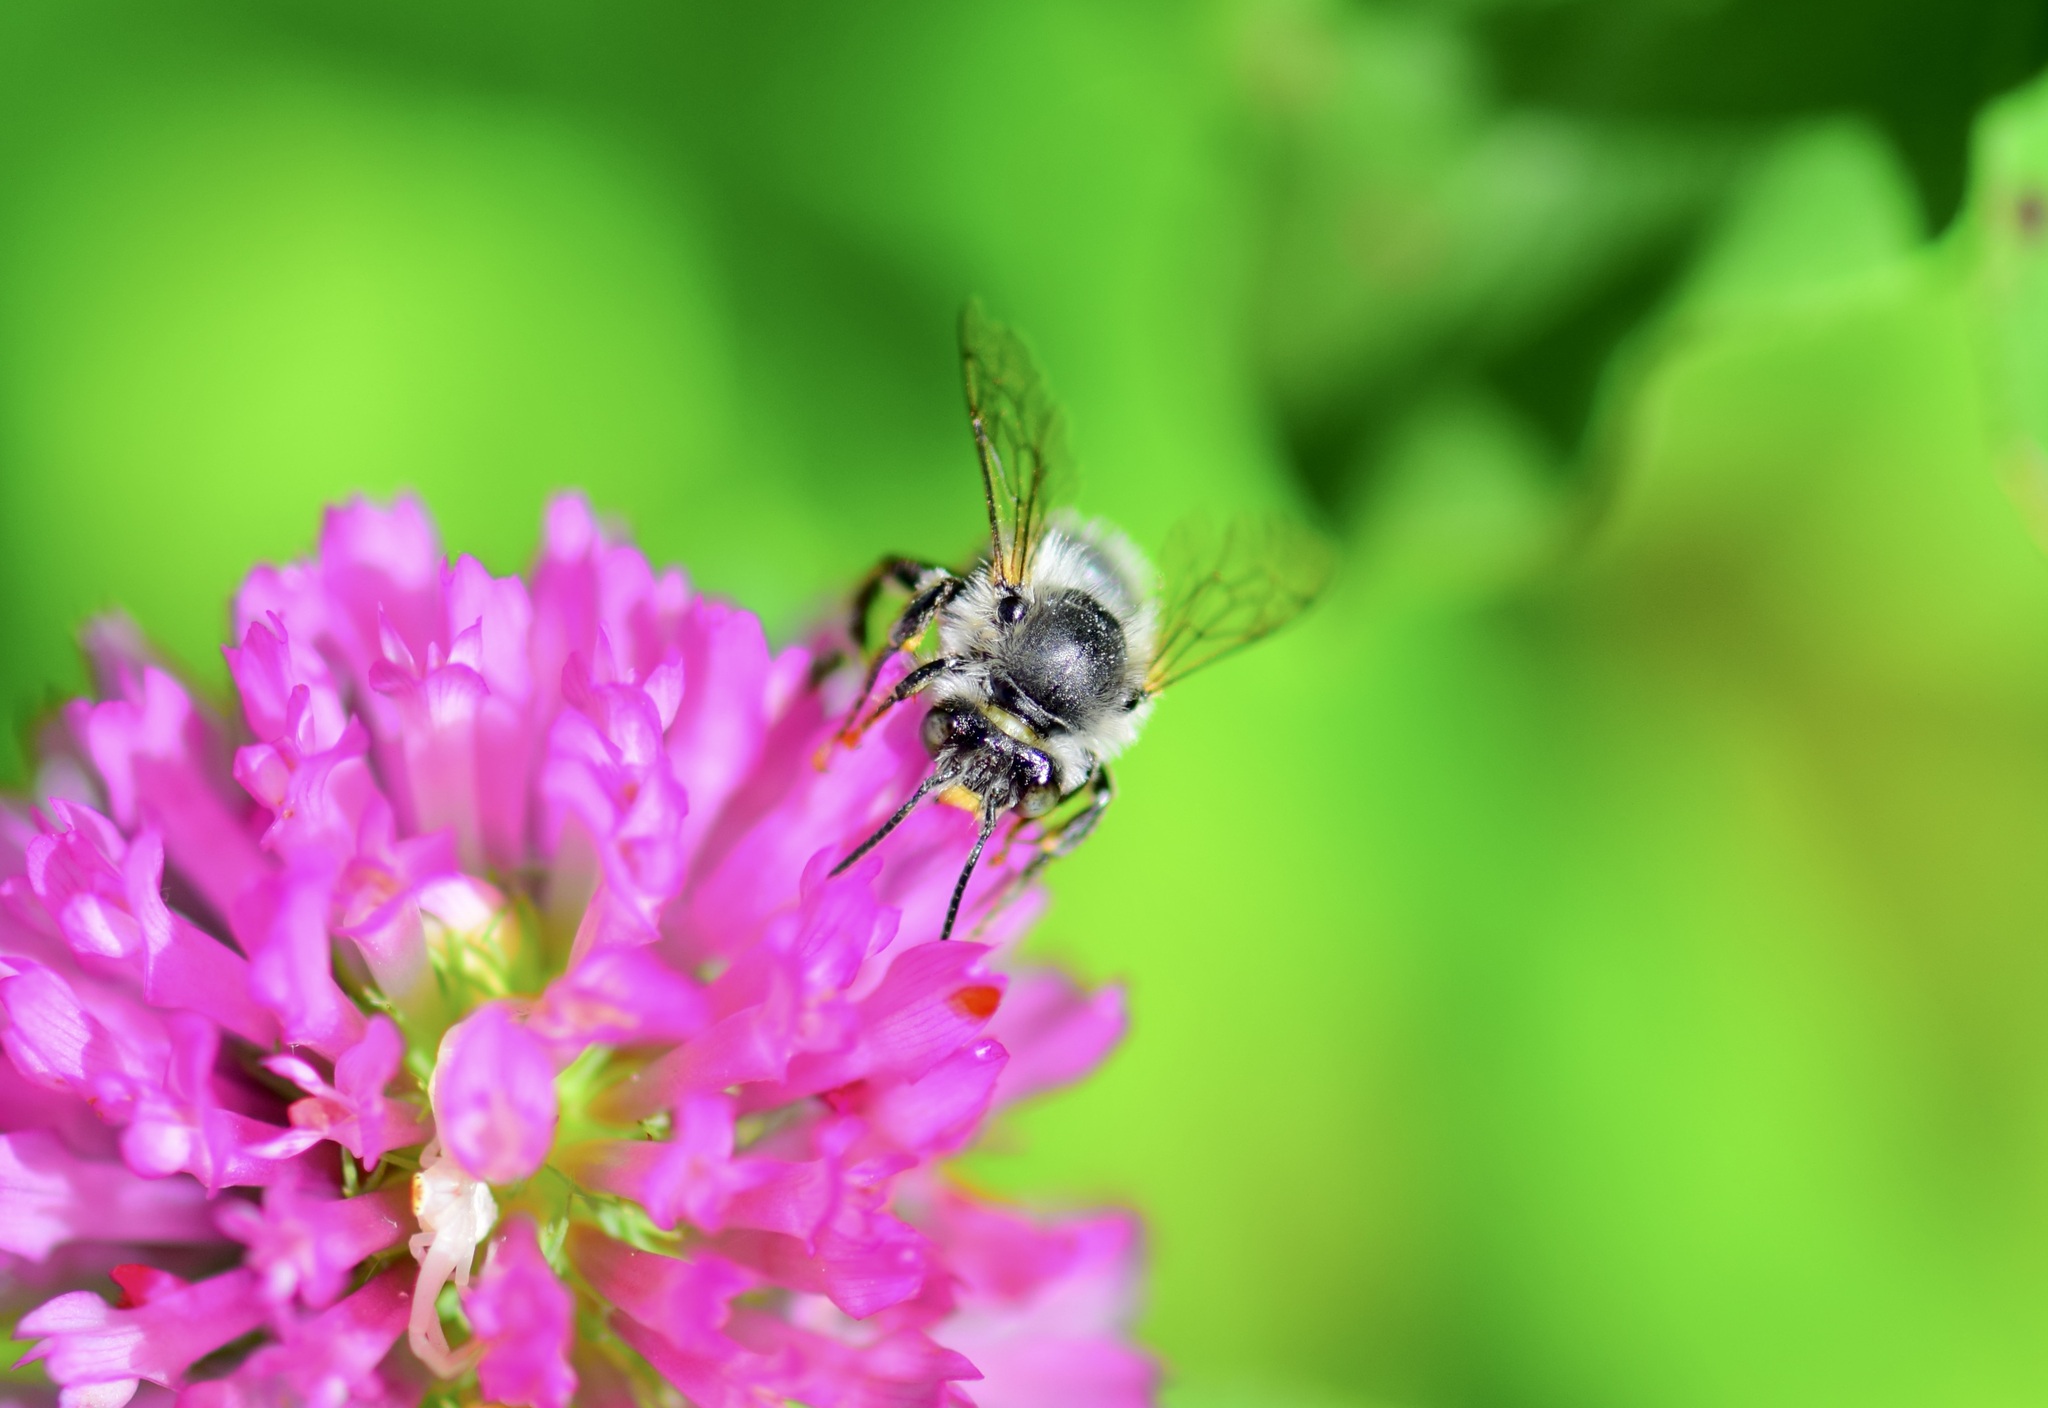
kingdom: Animalia
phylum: Arthropoda
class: Insecta
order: Hymenoptera
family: Apidae
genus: Anthophora
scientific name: Anthophora terminalis
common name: Orange-tipped wood-digger bee
